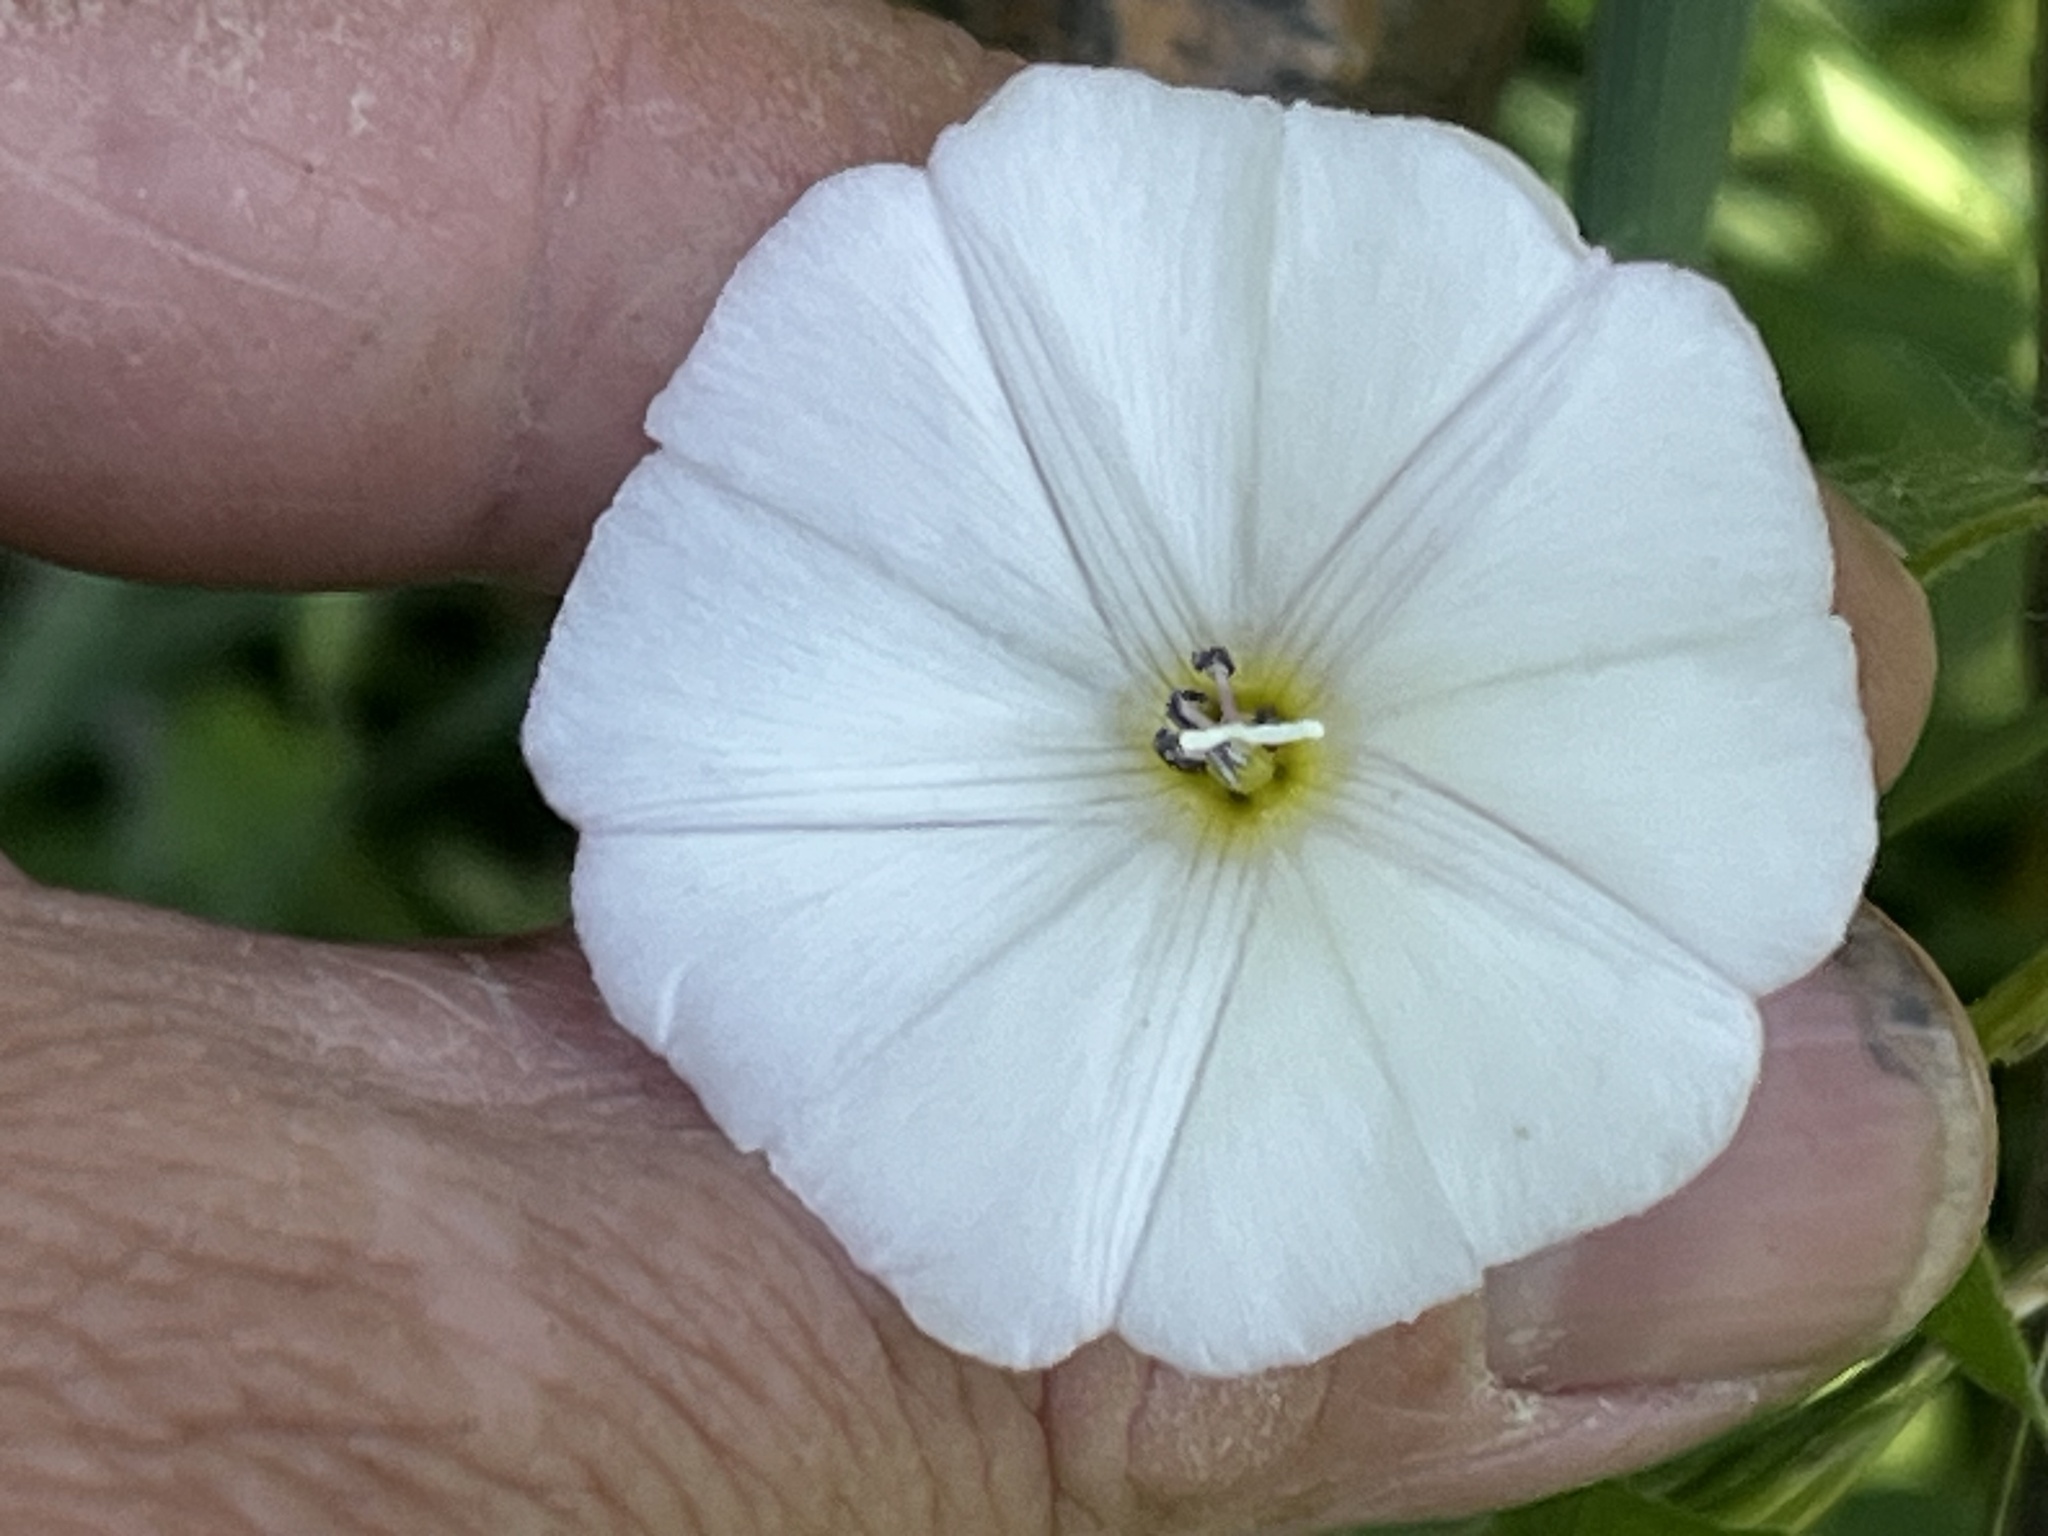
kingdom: Plantae
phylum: Tracheophyta
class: Magnoliopsida
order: Solanales
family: Convolvulaceae
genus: Convolvulus
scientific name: Convolvulus arvensis
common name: Field bindweed
